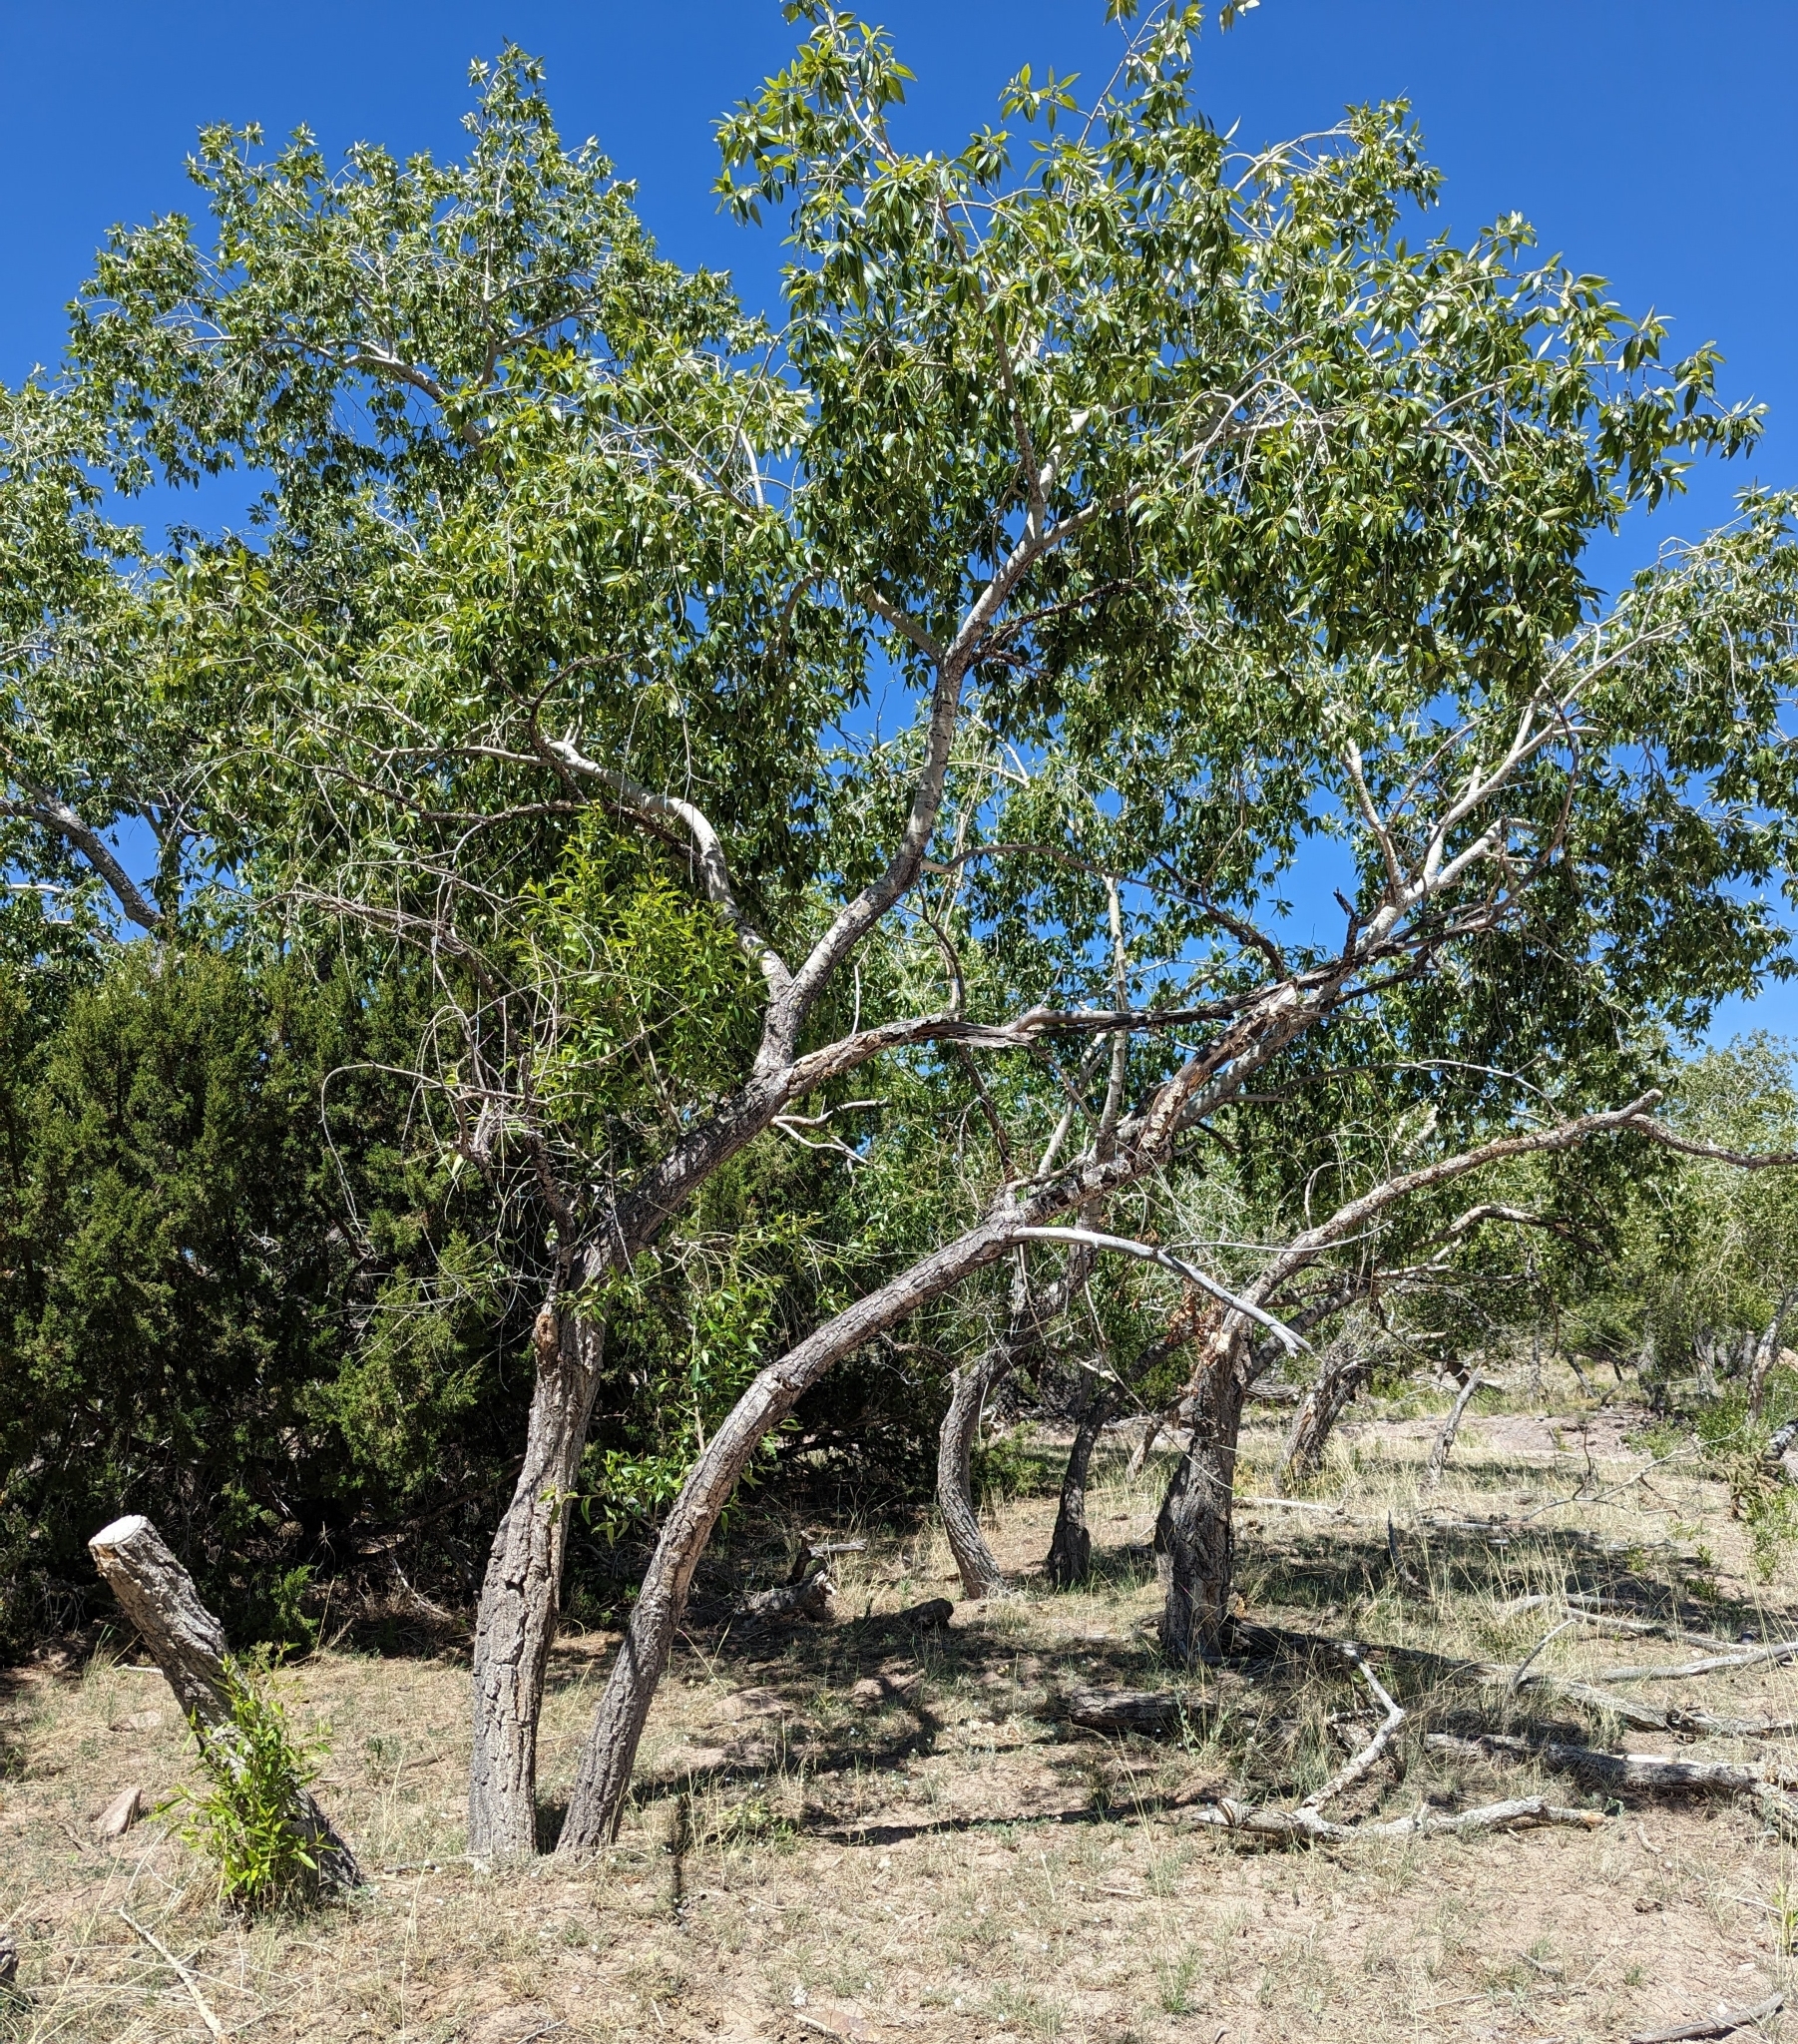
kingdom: Plantae
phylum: Tracheophyta
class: Magnoliopsida
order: Malpighiales
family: Salicaceae
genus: Populus
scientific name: Populus angustifolia
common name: Willow cottonwood
